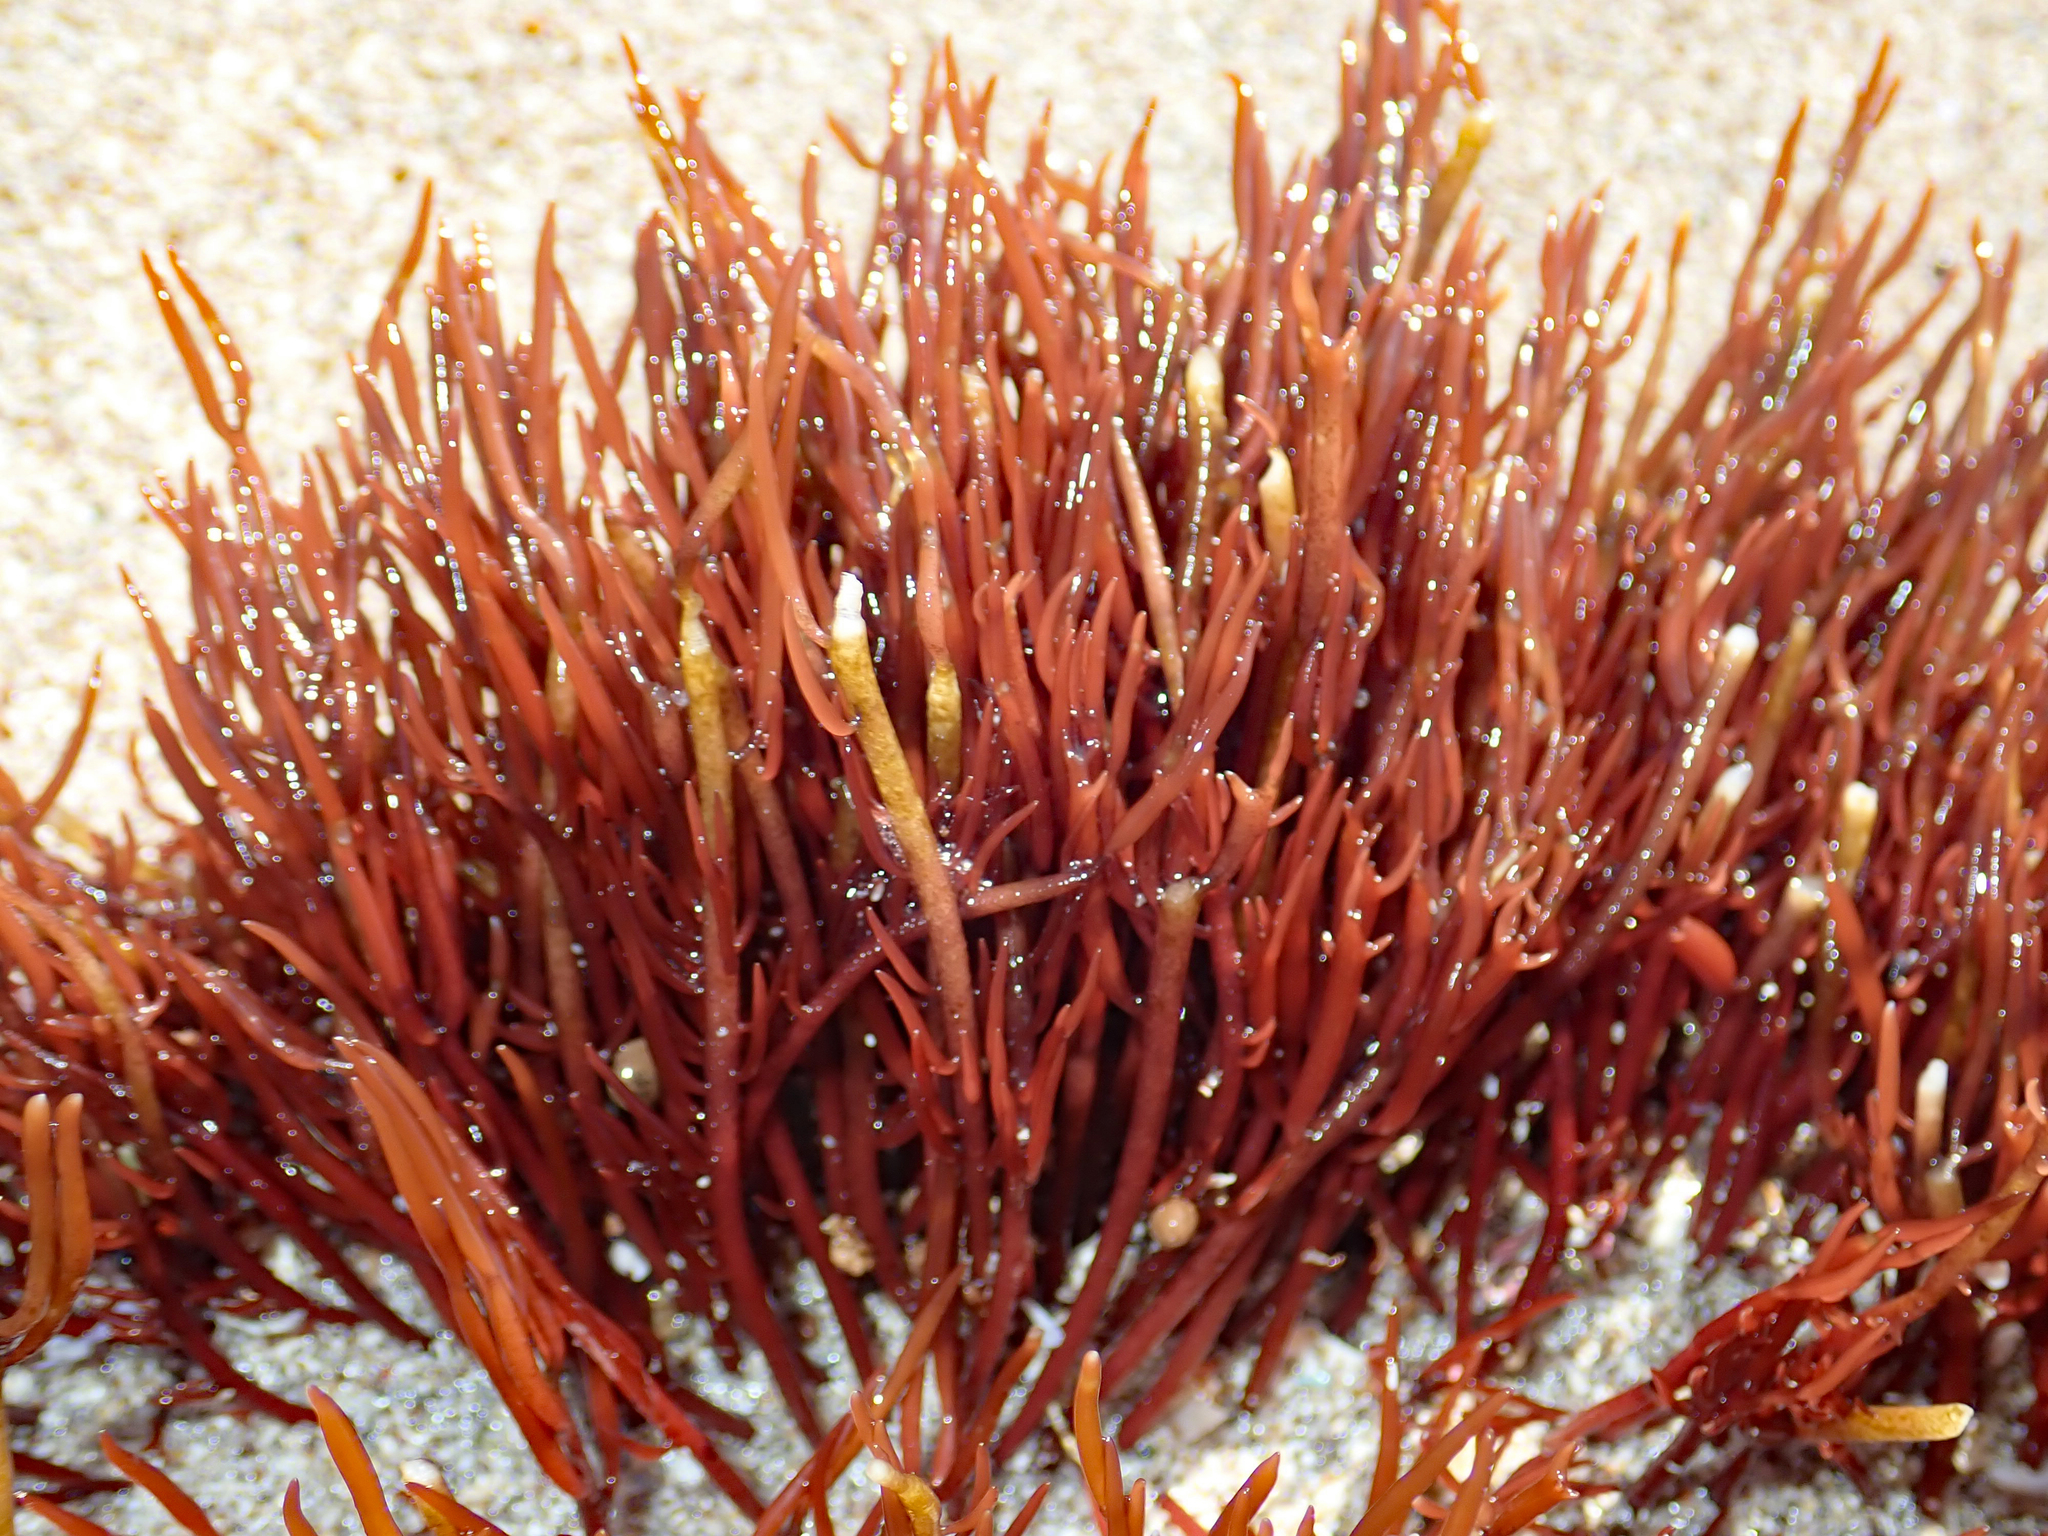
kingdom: Plantae
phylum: Rhodophyta
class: Florideophyceae
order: Gracilariales
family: Gracilariaceae
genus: Crassiphycus
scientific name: Crassiphycus secundatus
